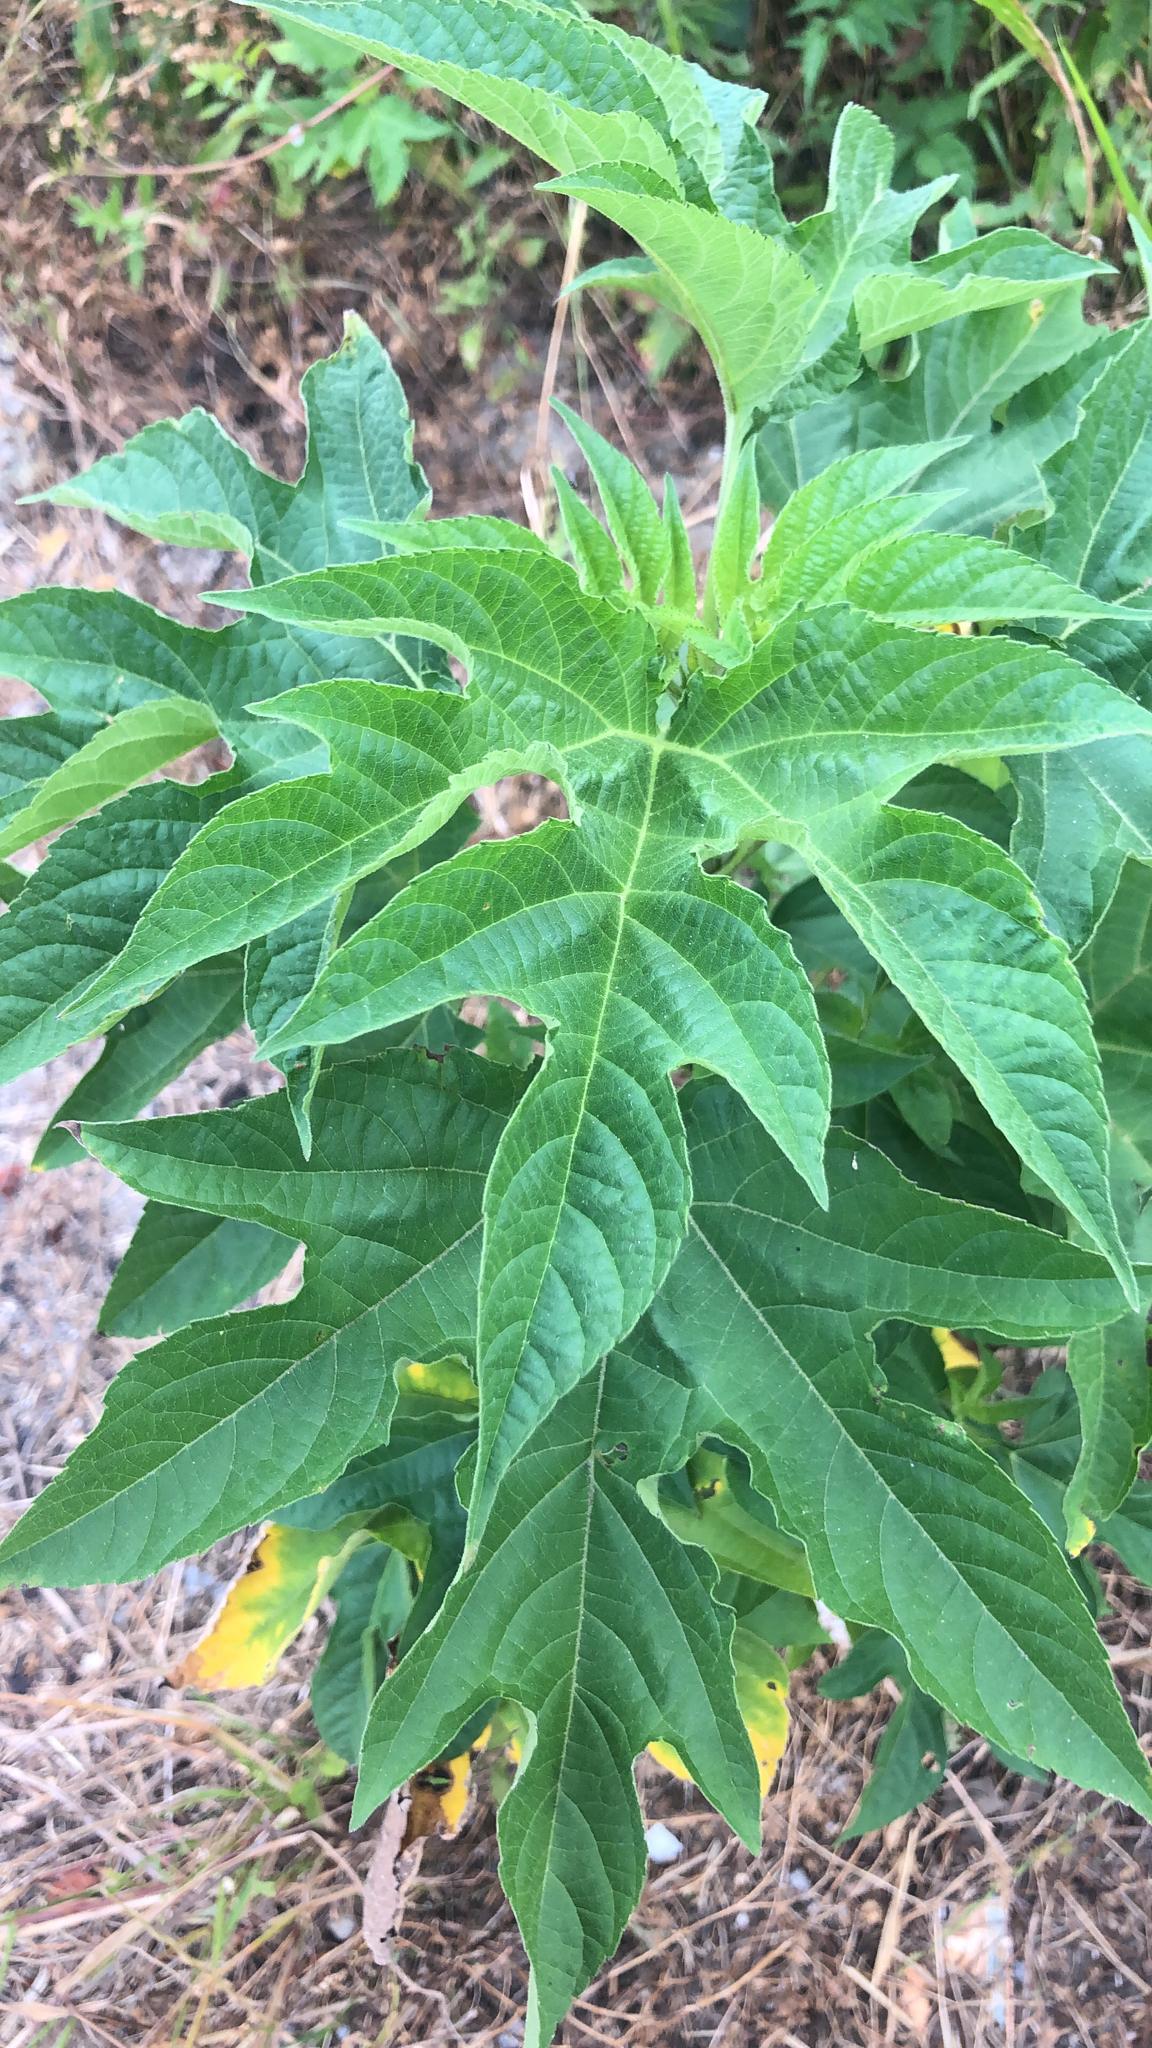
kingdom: Plantae
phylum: Tracheophyta
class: Magnoliopsida
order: Rosales
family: Moraceae
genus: Morus
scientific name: Morus indica
